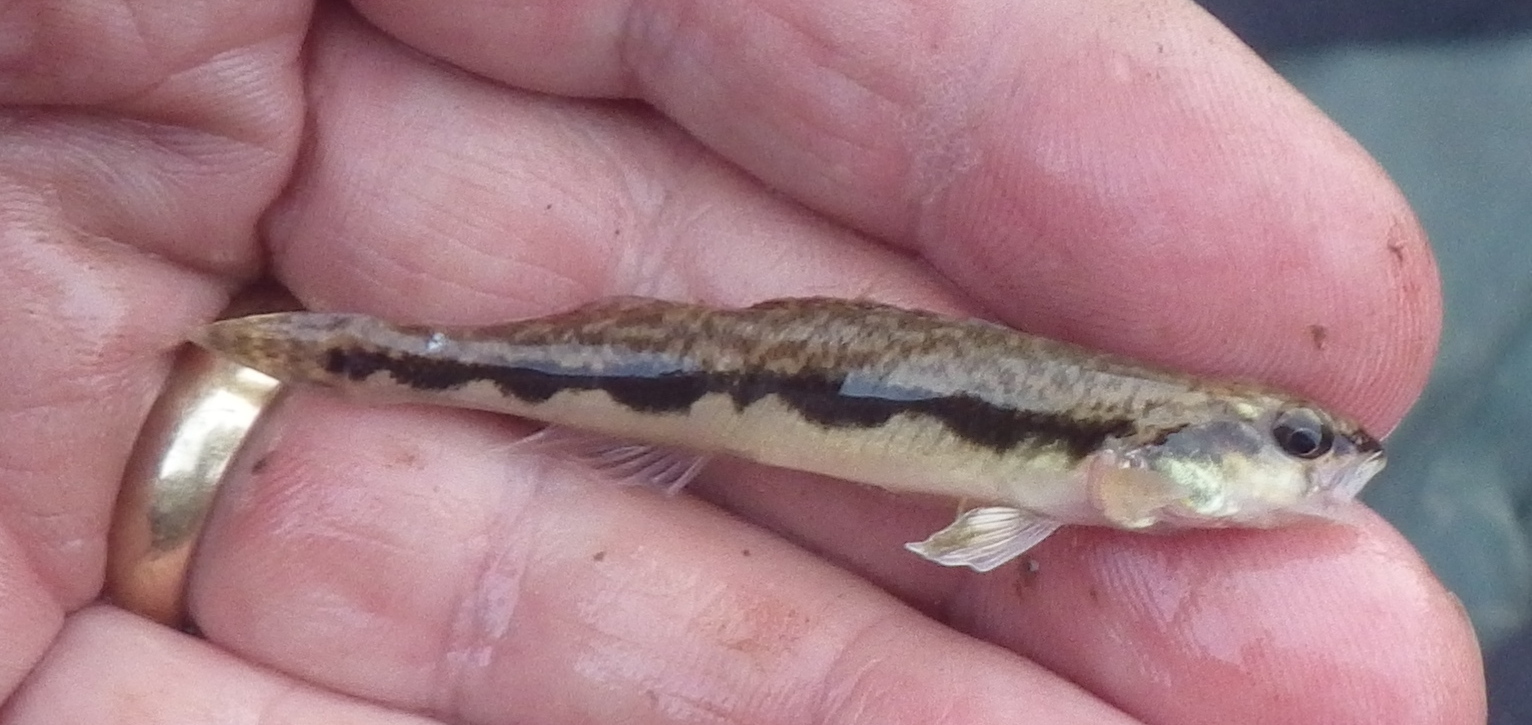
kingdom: Animalia
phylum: Chordata
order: Perciformes
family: Percidae
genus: Percina
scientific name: Percina maculata
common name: Blackside darter
